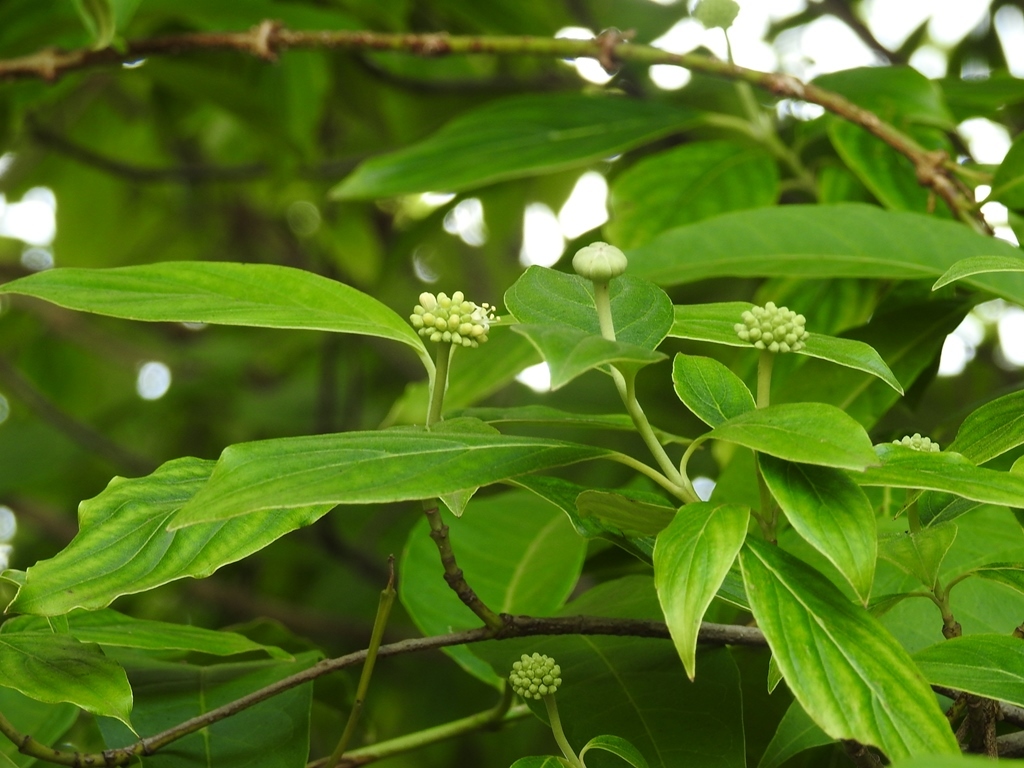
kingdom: Plantae
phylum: Tracheophyta
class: Magnoliopsida
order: Cornales
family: Cornaceae
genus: Cornus
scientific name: Cornus disciflora
